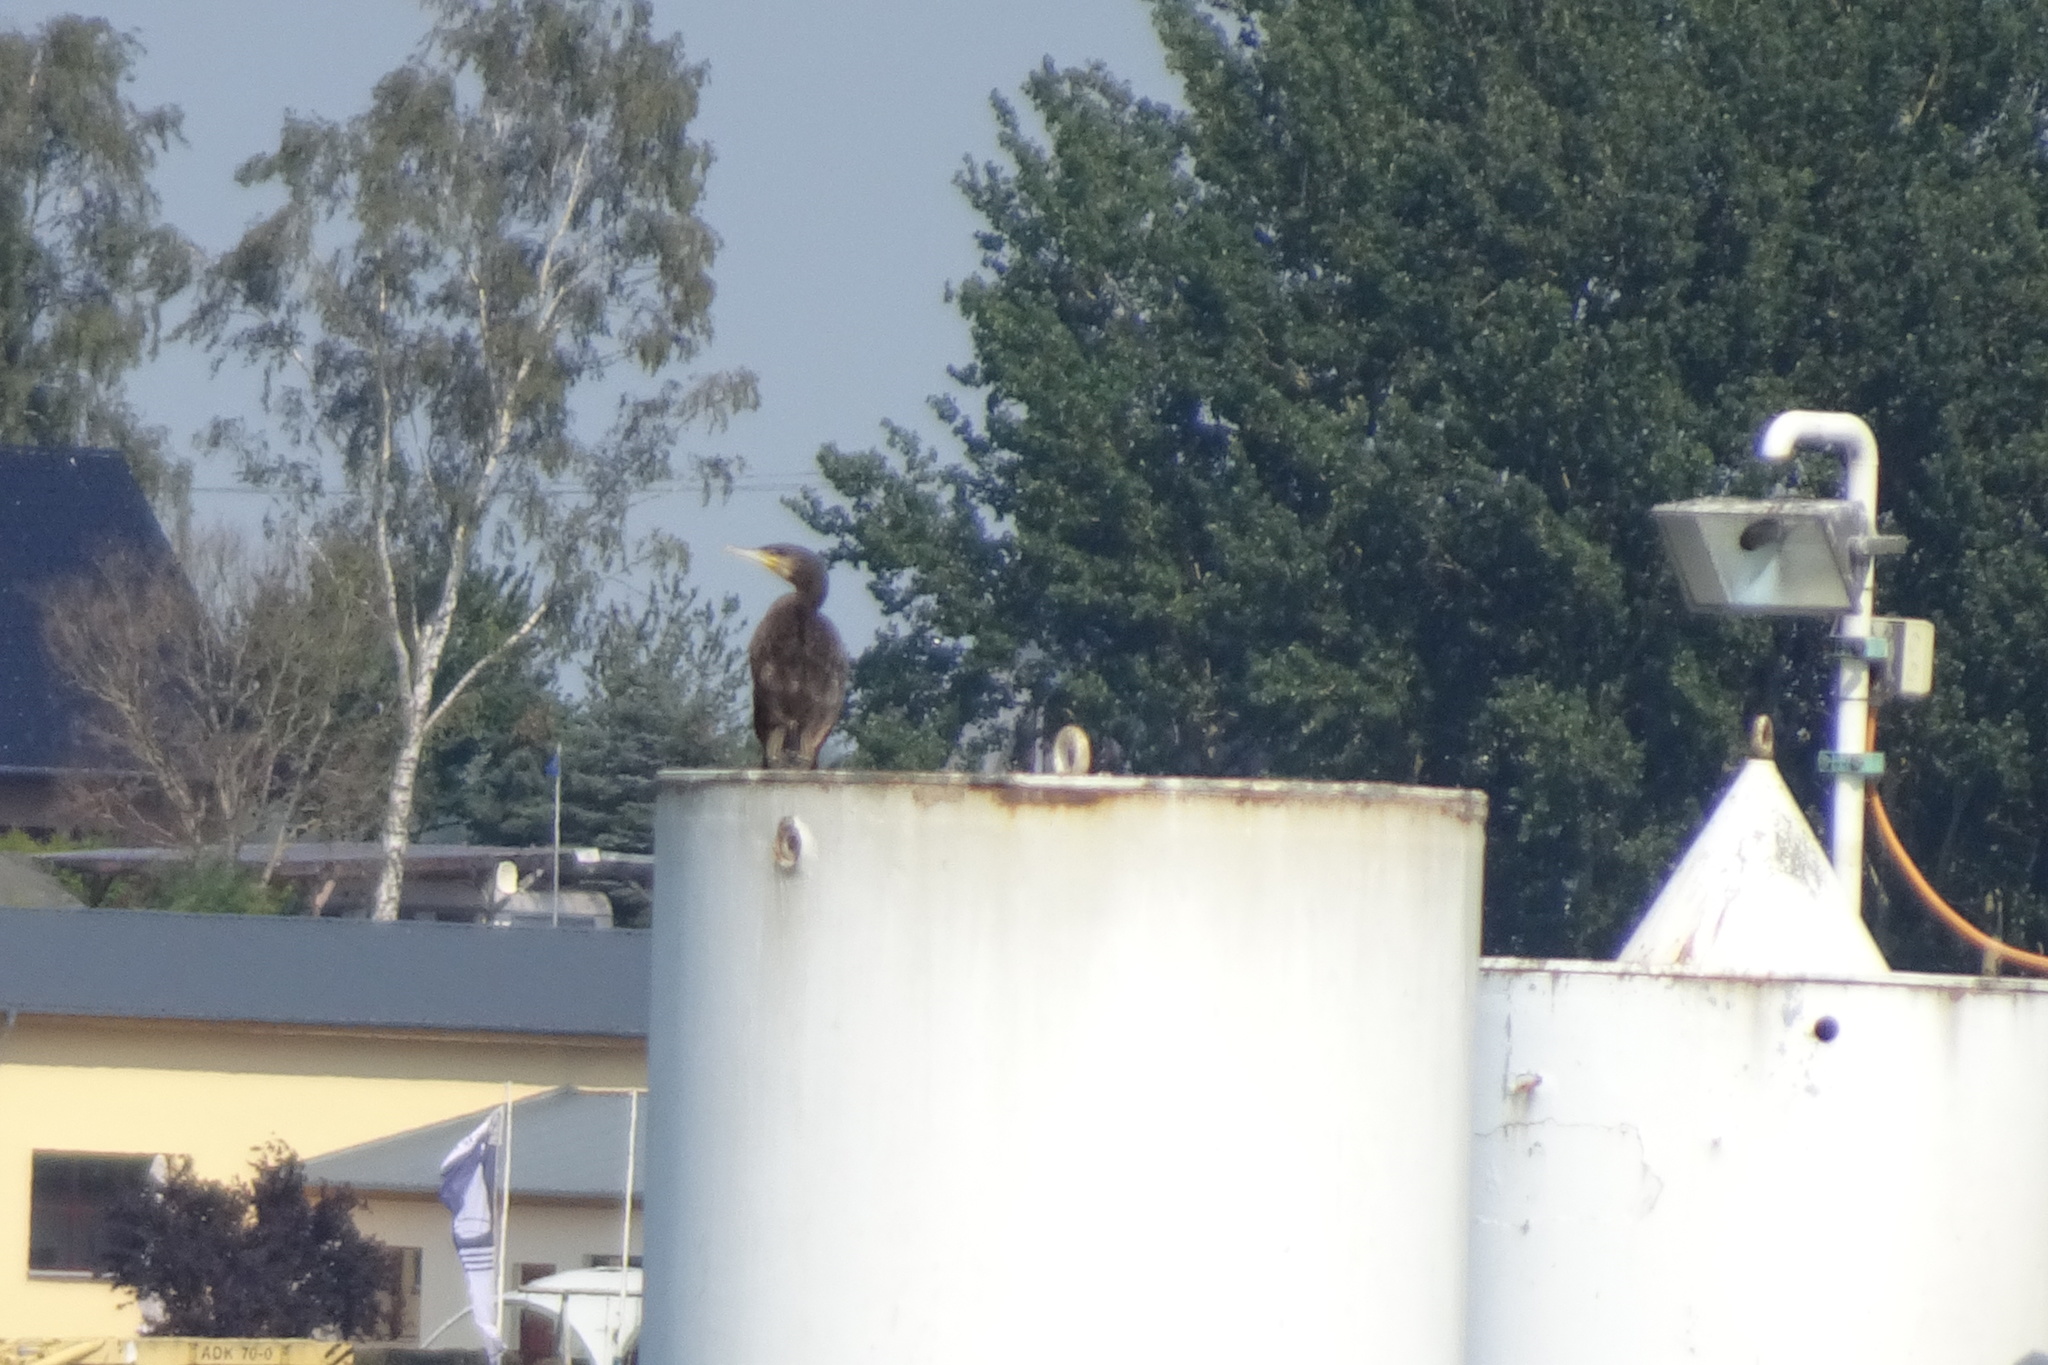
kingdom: Animalia
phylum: Chordata
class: Aves
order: Suliformes
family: Phalacrocoracidae
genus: Phalacrocorax
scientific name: Phalacrocorax carbo
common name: Great cormorant
